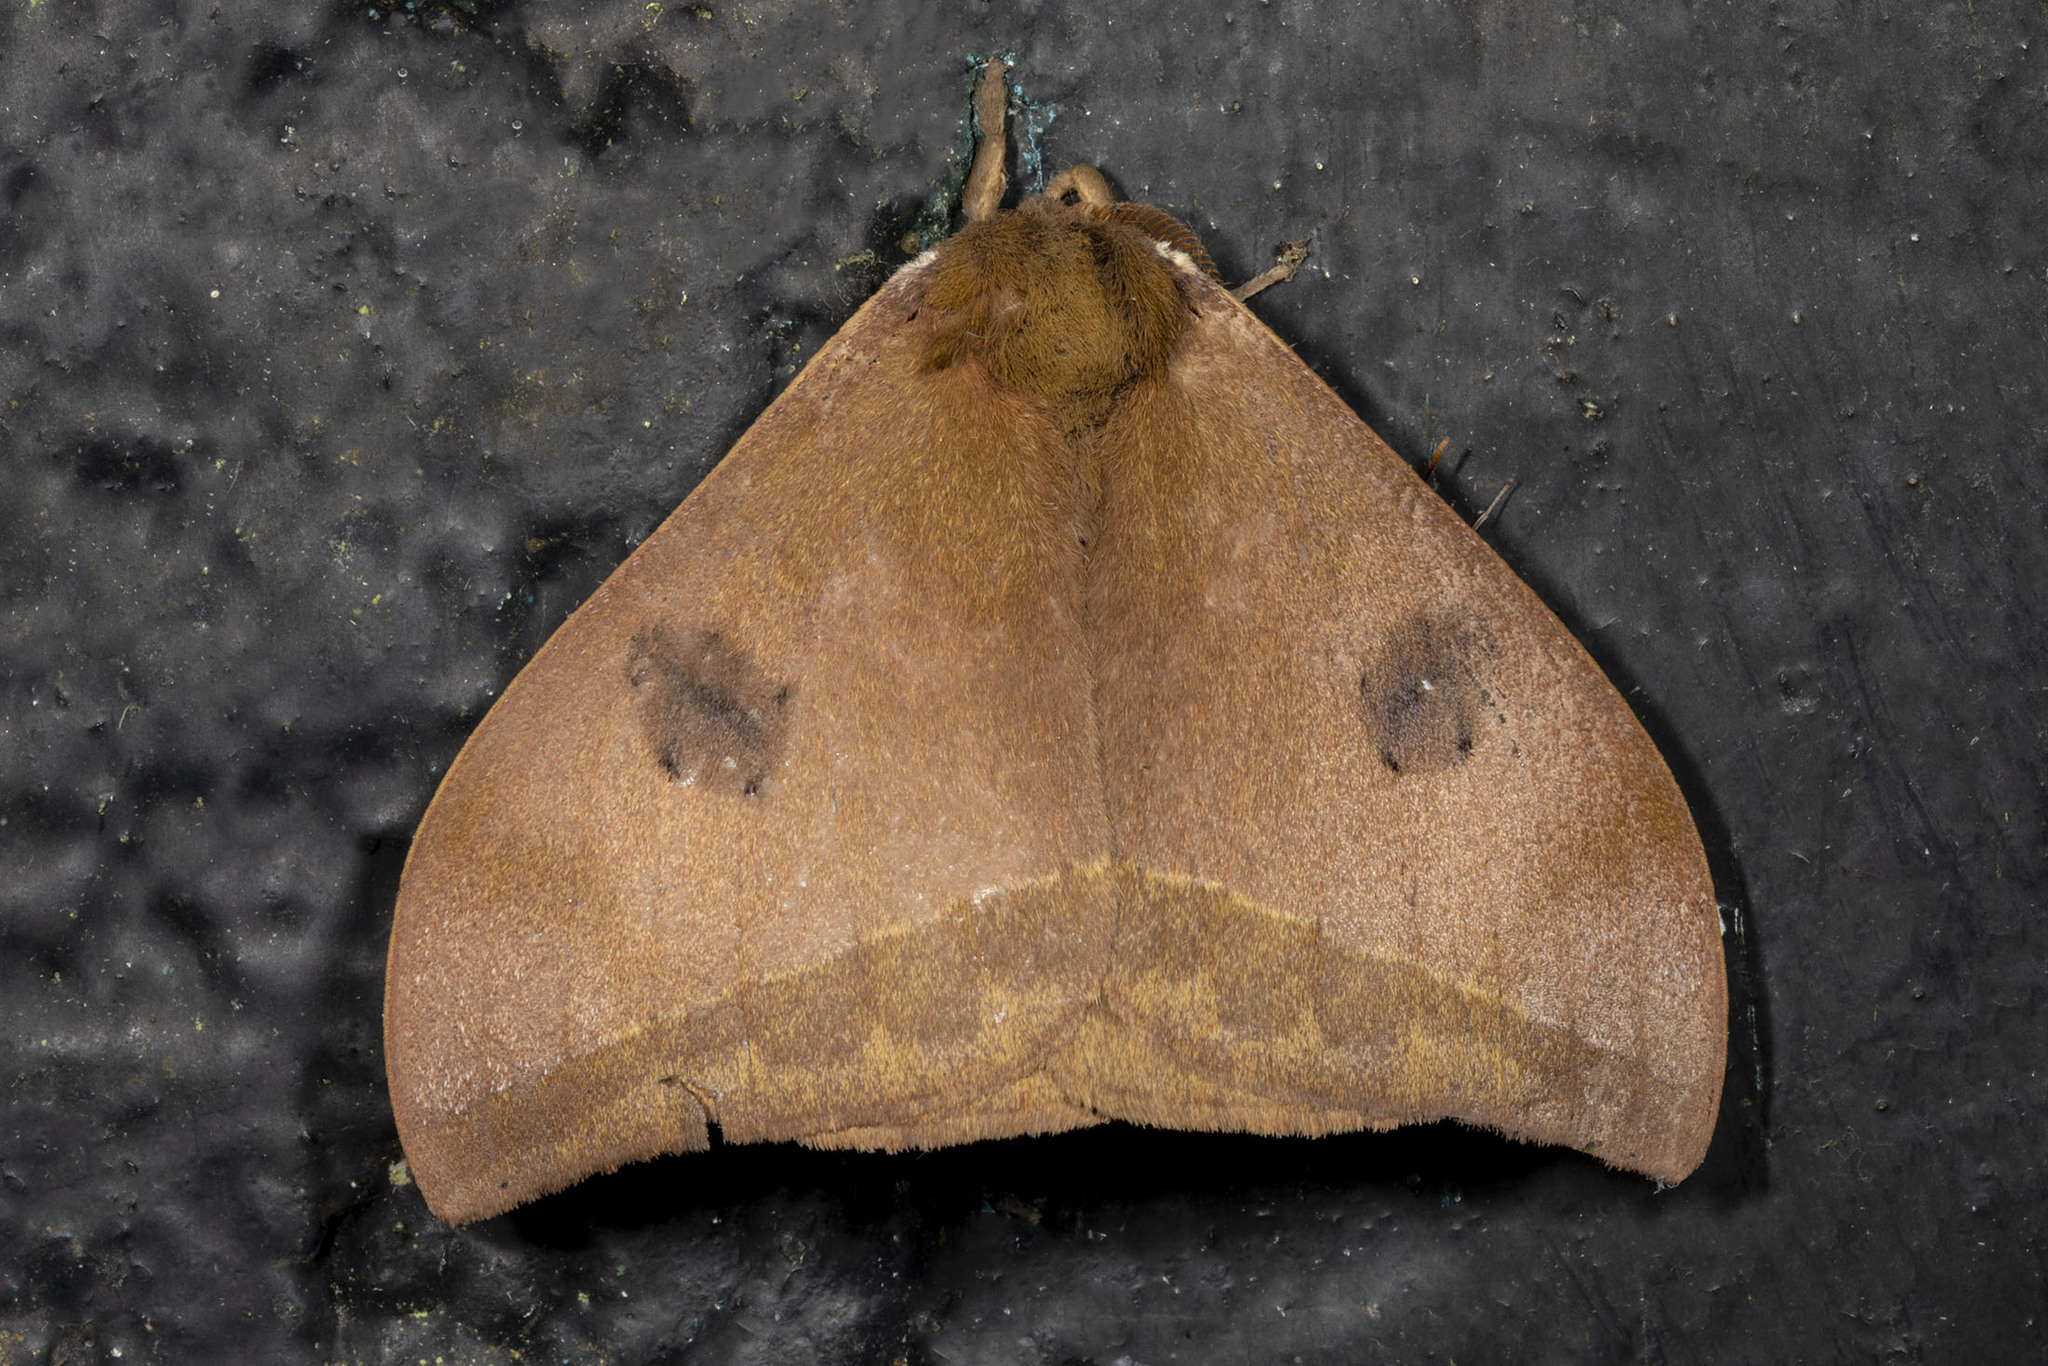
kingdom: Animalia
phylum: Arthropoda
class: Insecta
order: Lepidoptera
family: Saturniidae
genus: Automeris
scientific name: Automeris midea
